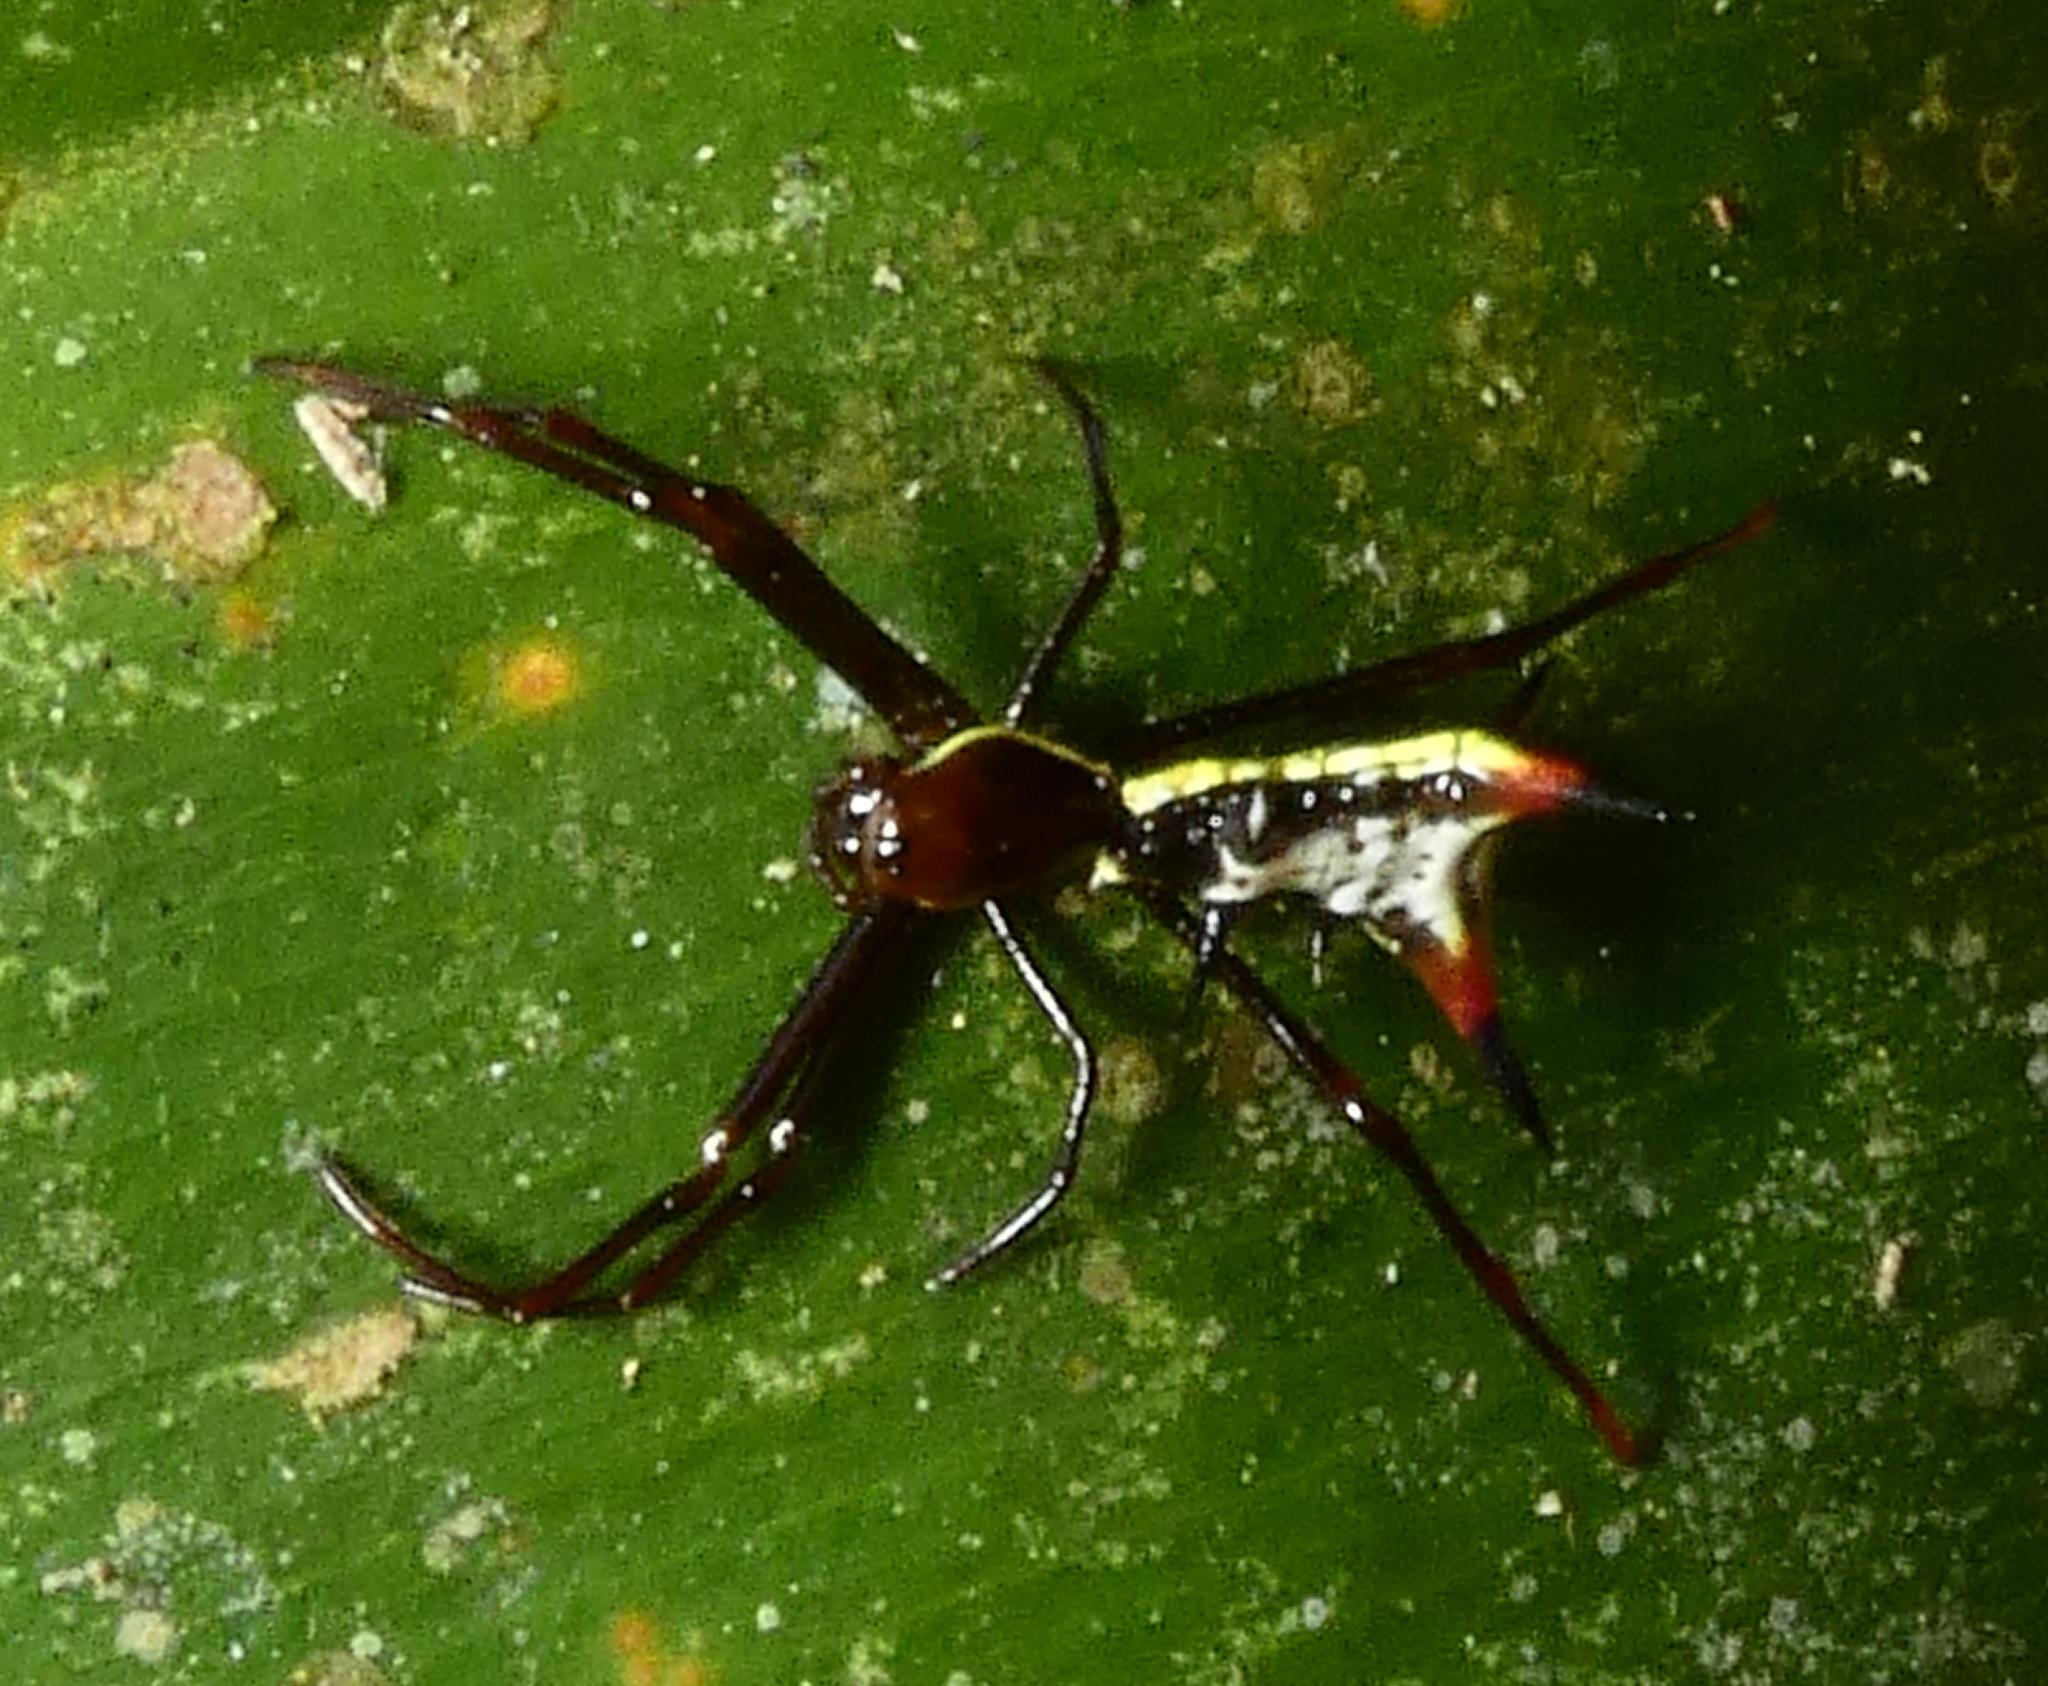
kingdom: Animalia
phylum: Arthropoda
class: Arachnida
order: Araneae
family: Araneidae
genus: Micrathena
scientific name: Micrathena schreibersi
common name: Orb weavers
